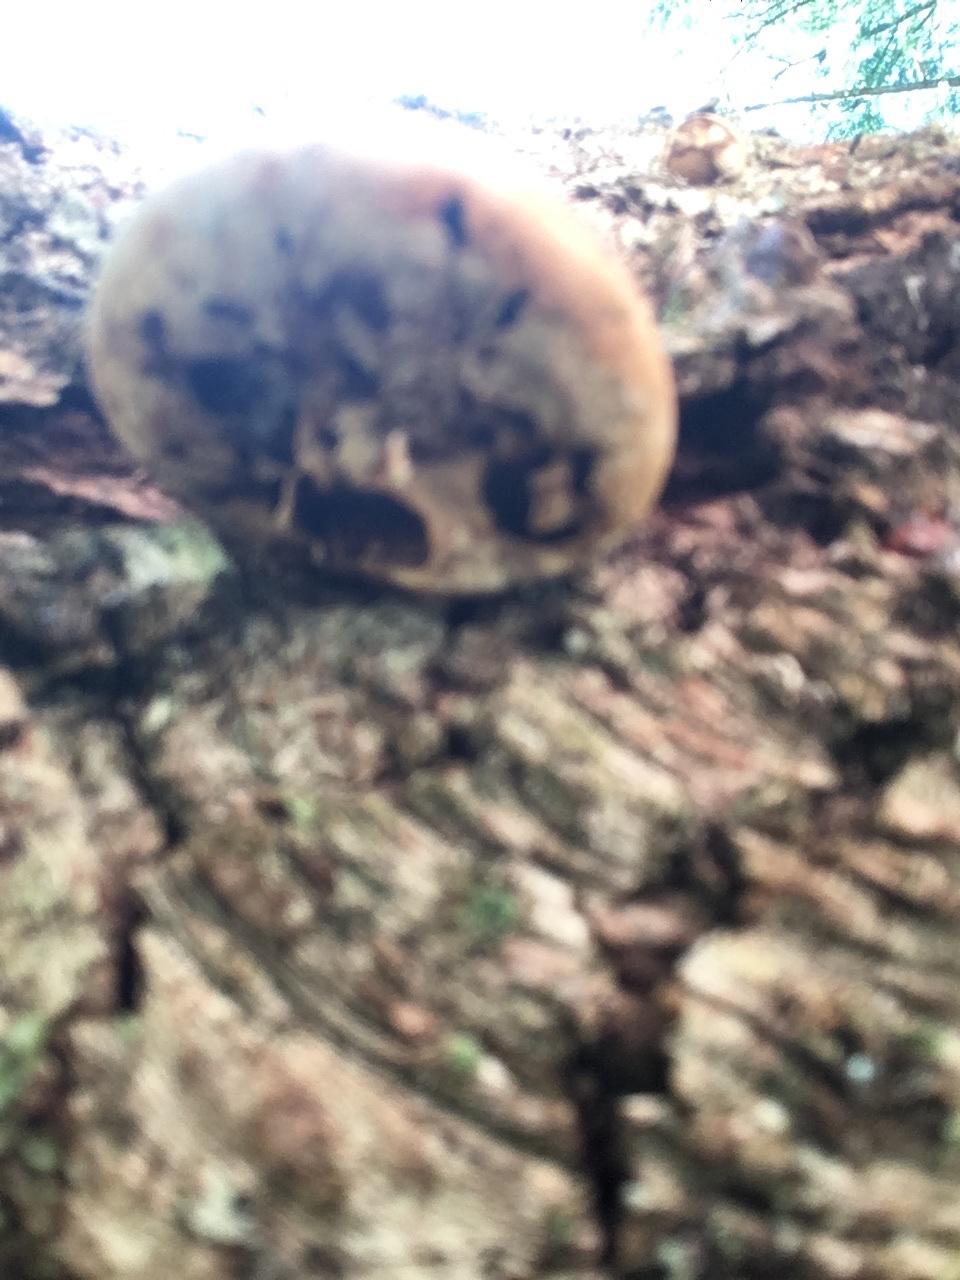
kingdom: Fungi
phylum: Basidiomycota
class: Agaricomycetes
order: Polyporales
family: Polyporaceae
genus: Cryptoporus
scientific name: Cryptoporus volvatus
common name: Veiled polypore
